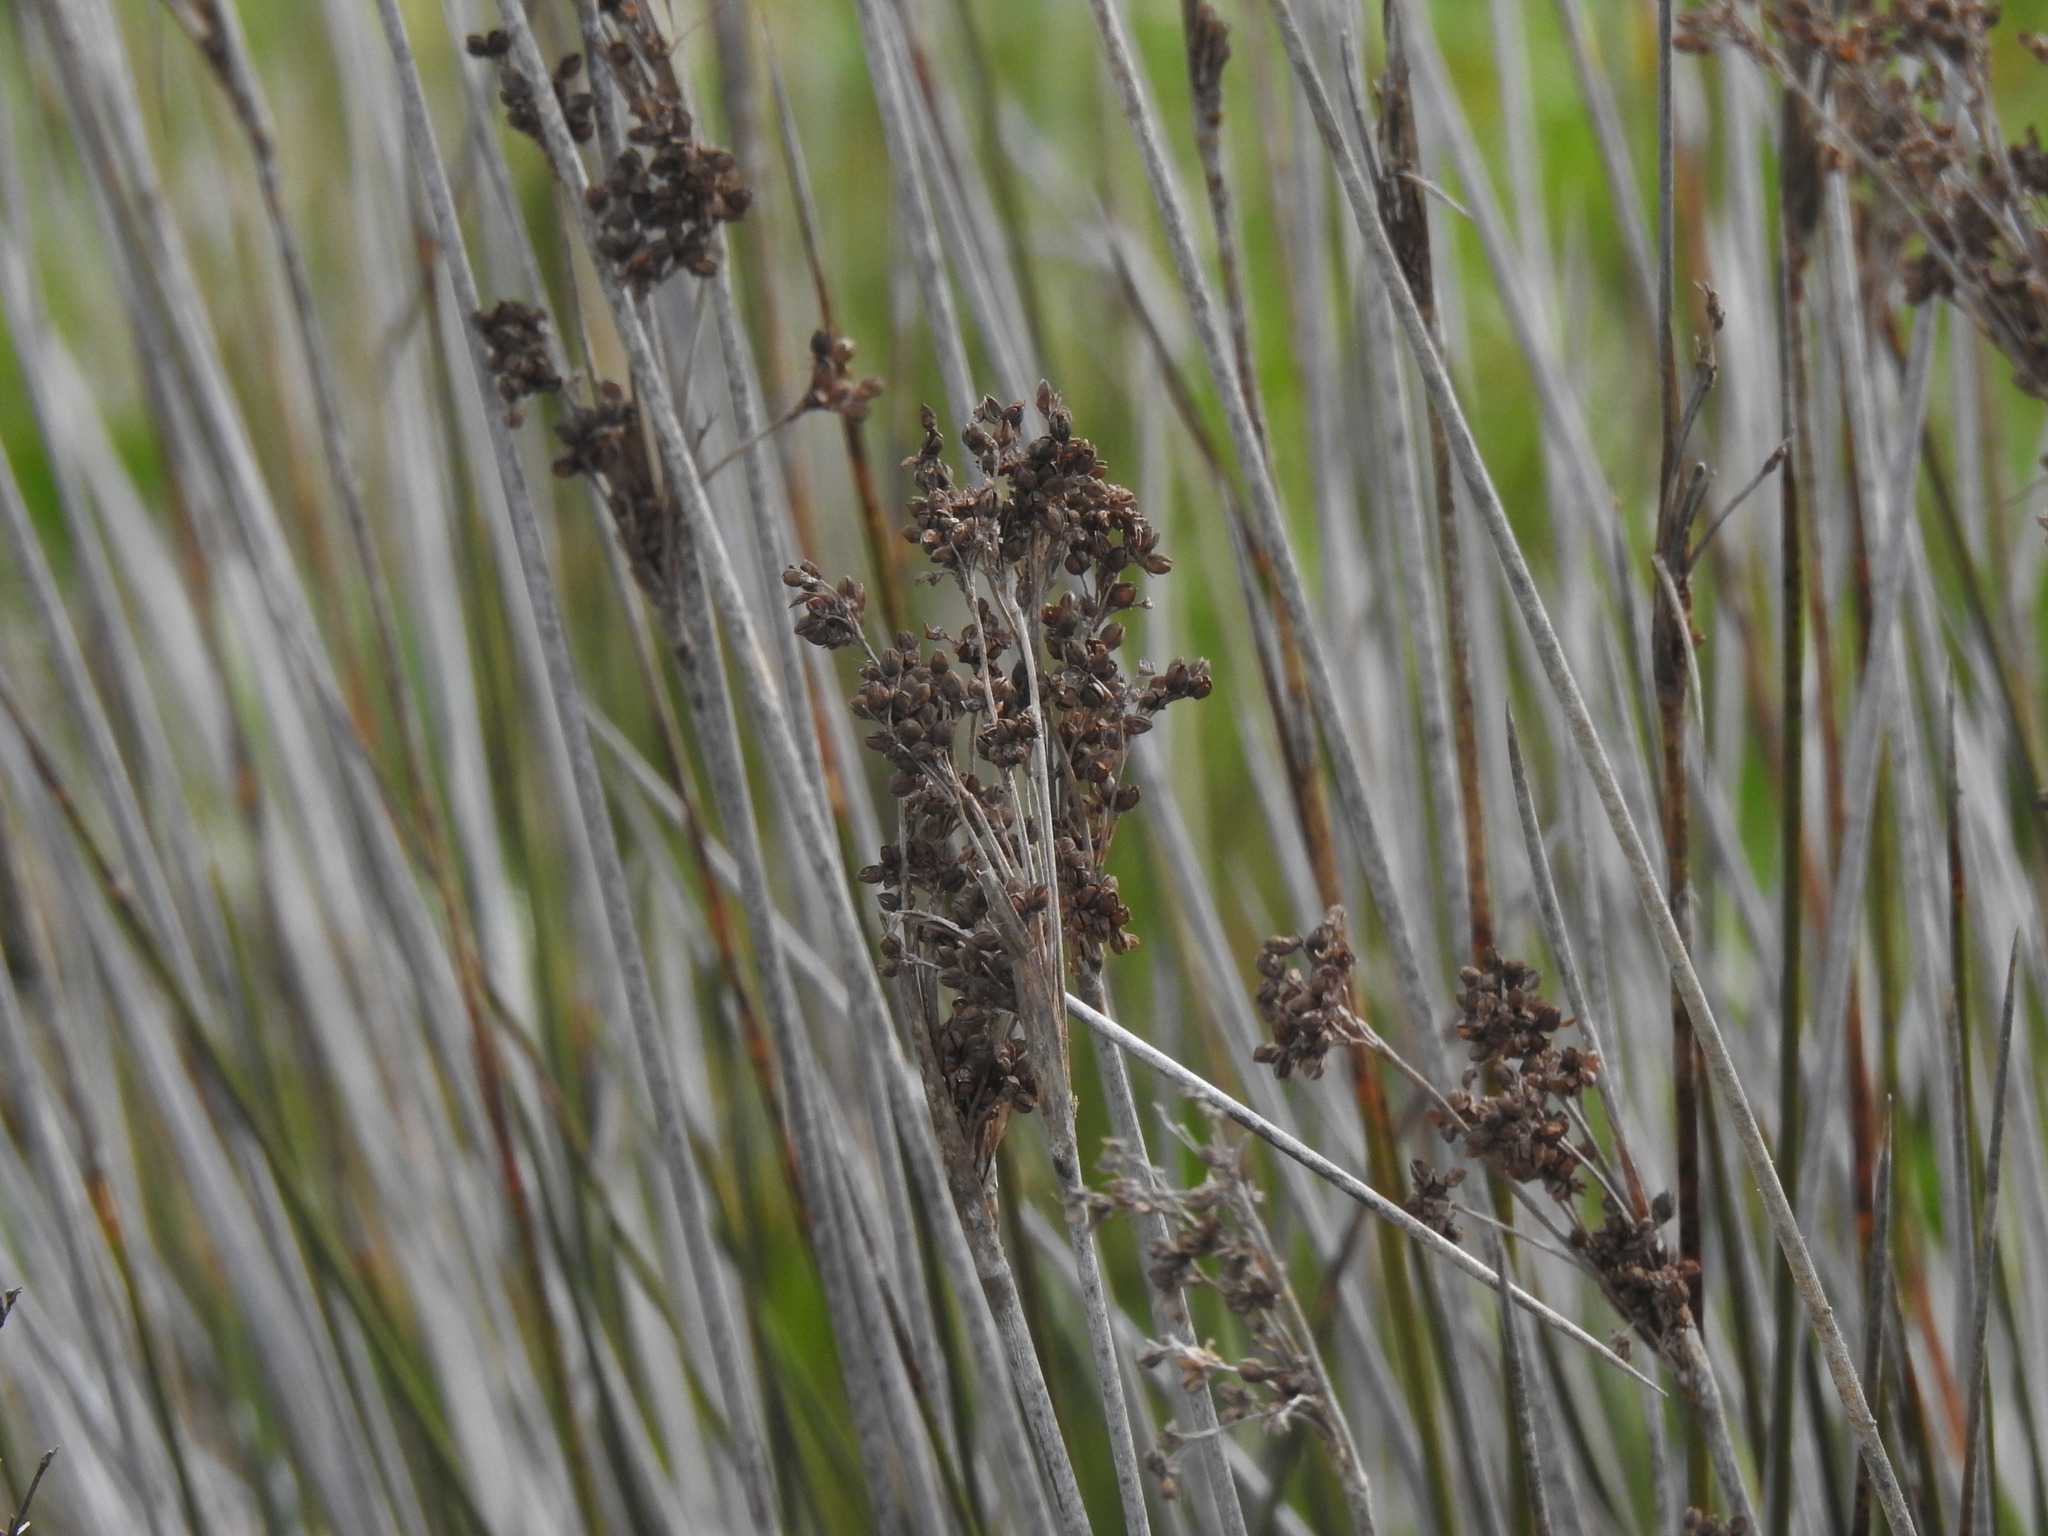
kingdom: Plantae
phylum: Tracheophyta
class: Liliopsida
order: Poales
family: Juncaceae
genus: Juncus
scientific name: Juncus acutus
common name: Sharp rush
